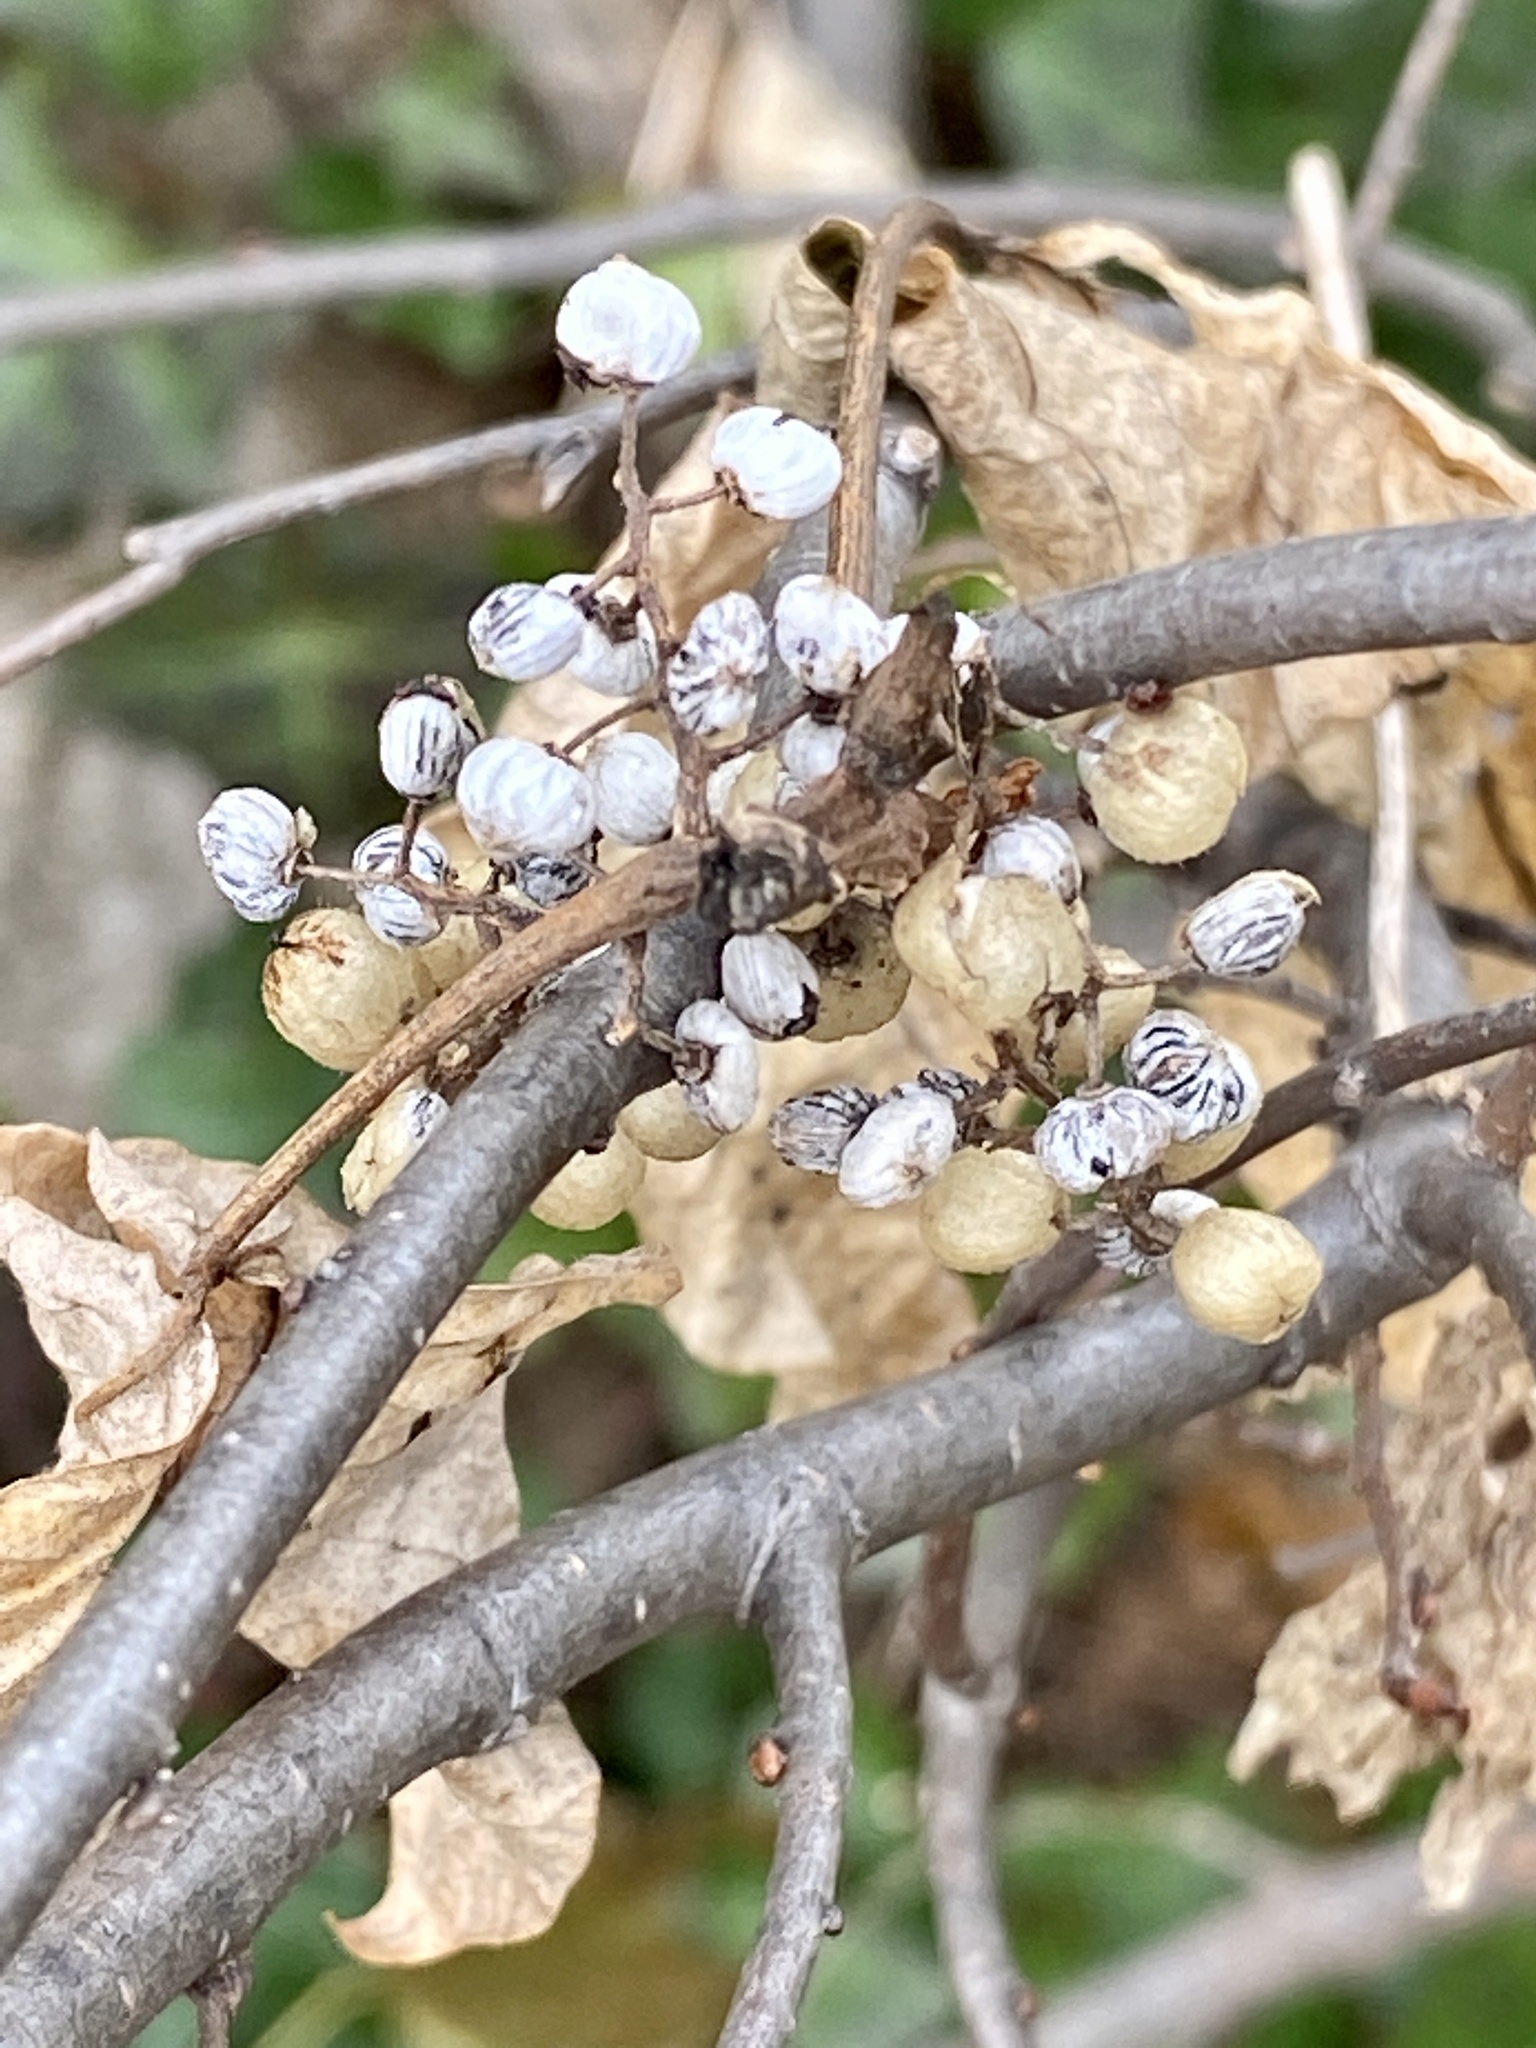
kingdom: Plantae
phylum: Tracheophyta
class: Magnoliopsida
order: Sapindales
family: Anacardiaceae
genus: Toxicodendron
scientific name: Toxicodendron radicans
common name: Poison ivy
